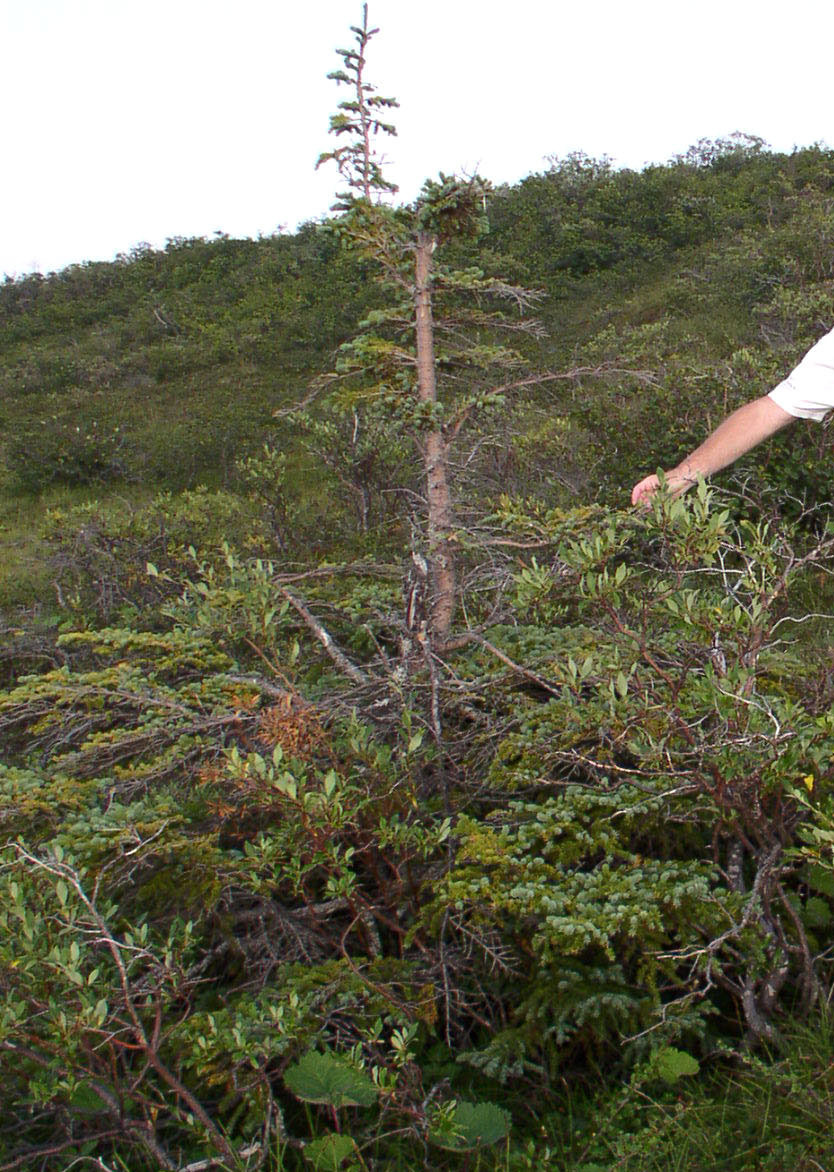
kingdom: Plantae
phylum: Tracheophyta
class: Pinopsida
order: Pinales
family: Pinaceae
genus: Picea
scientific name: Picea mariana
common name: Black spruce
